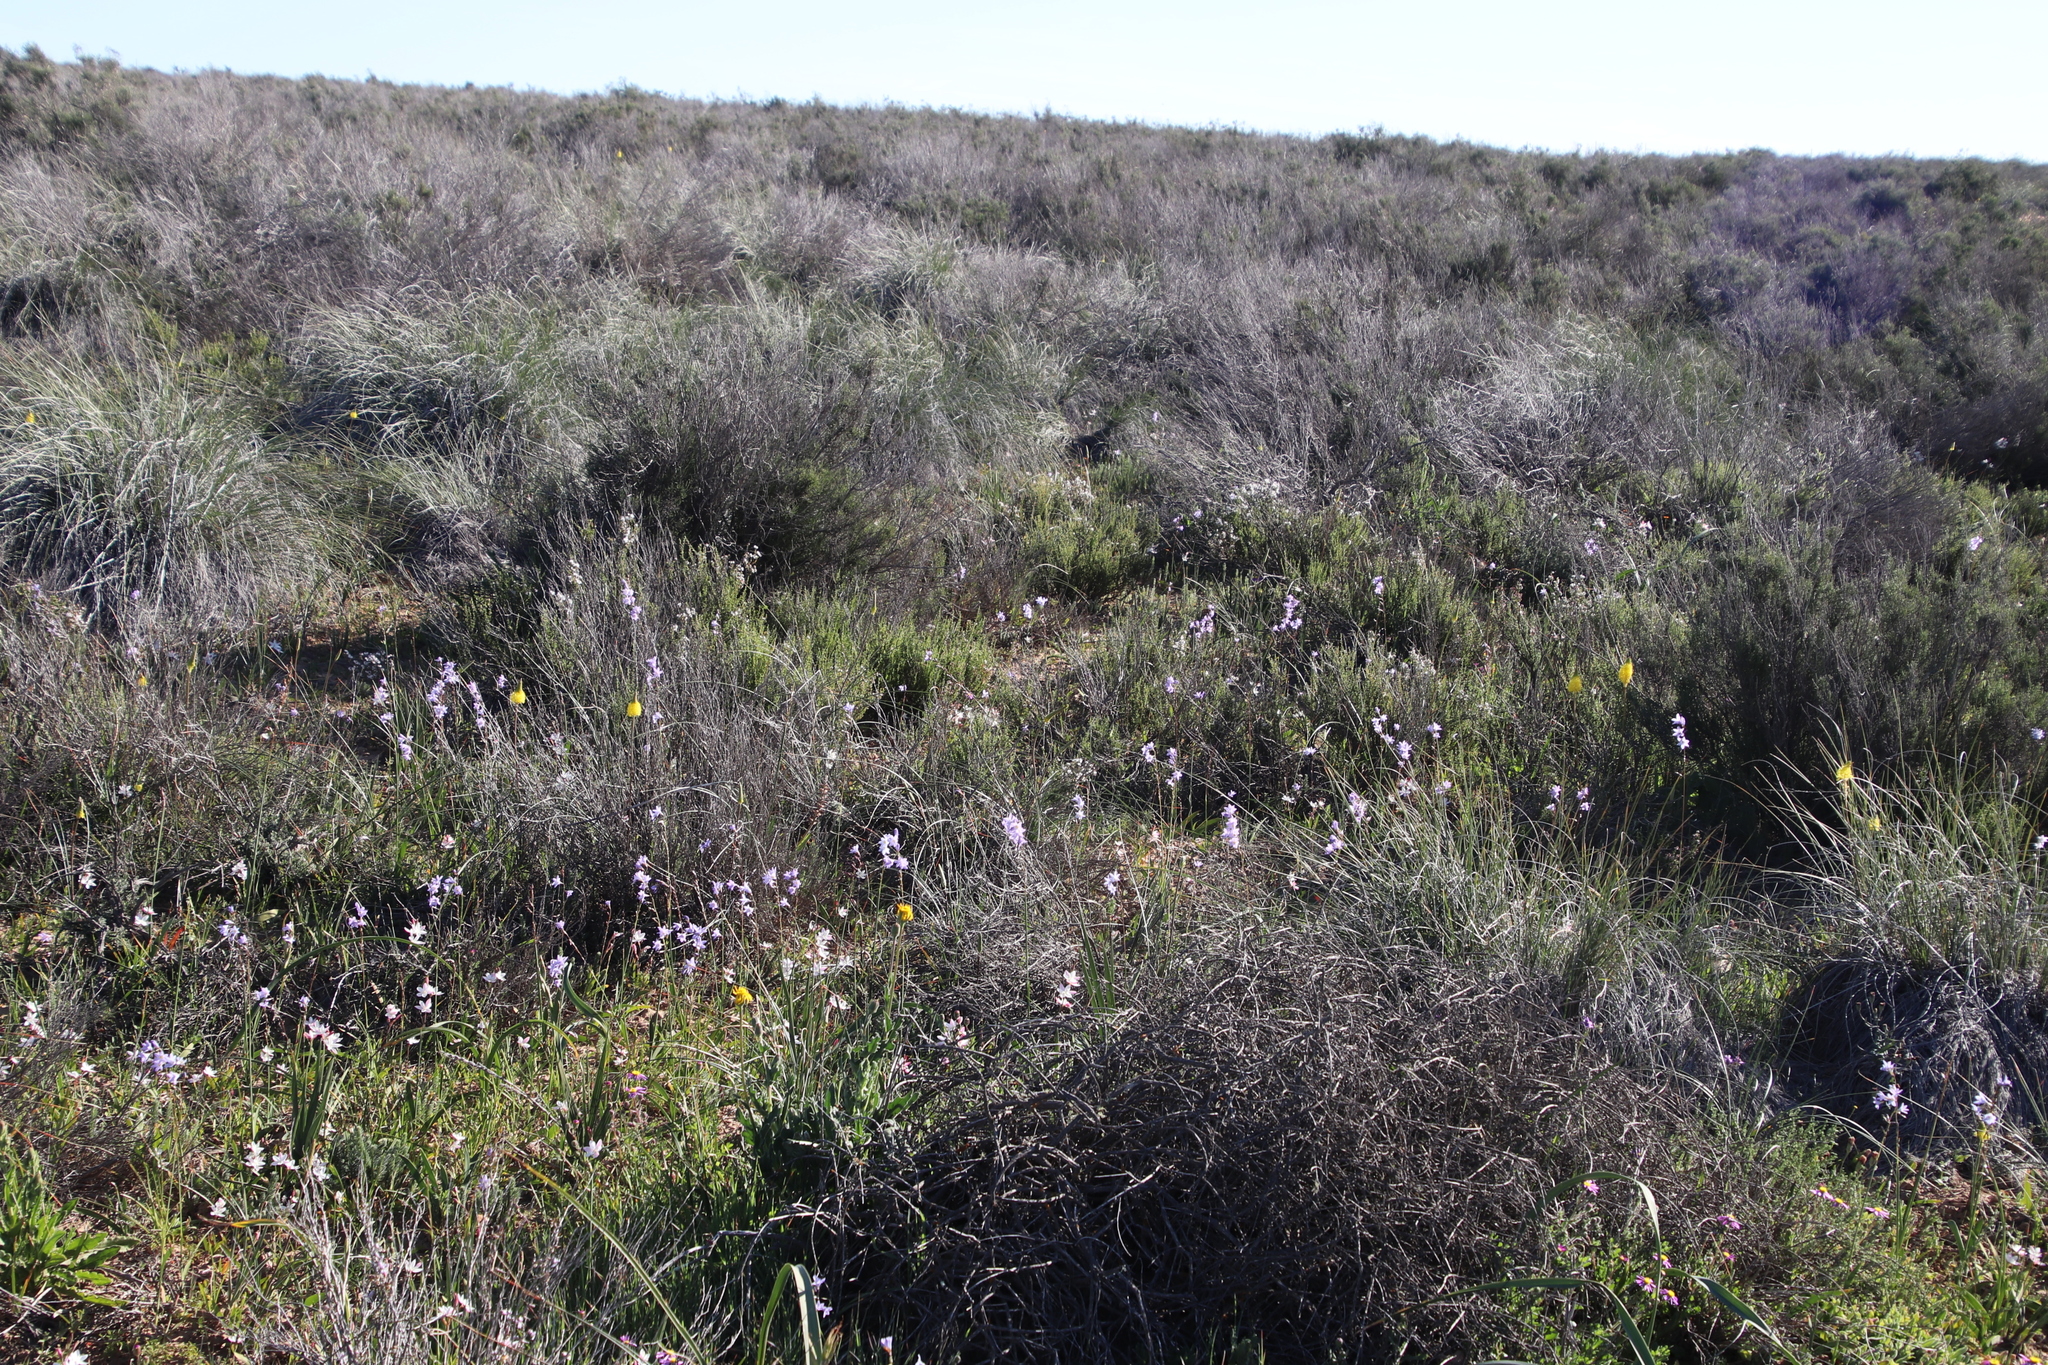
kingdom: Plantae
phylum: Tracheophyta
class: Liliopsida
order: Asparagales
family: Iridaceae
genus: Ixia
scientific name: Ixia rapunculoides
